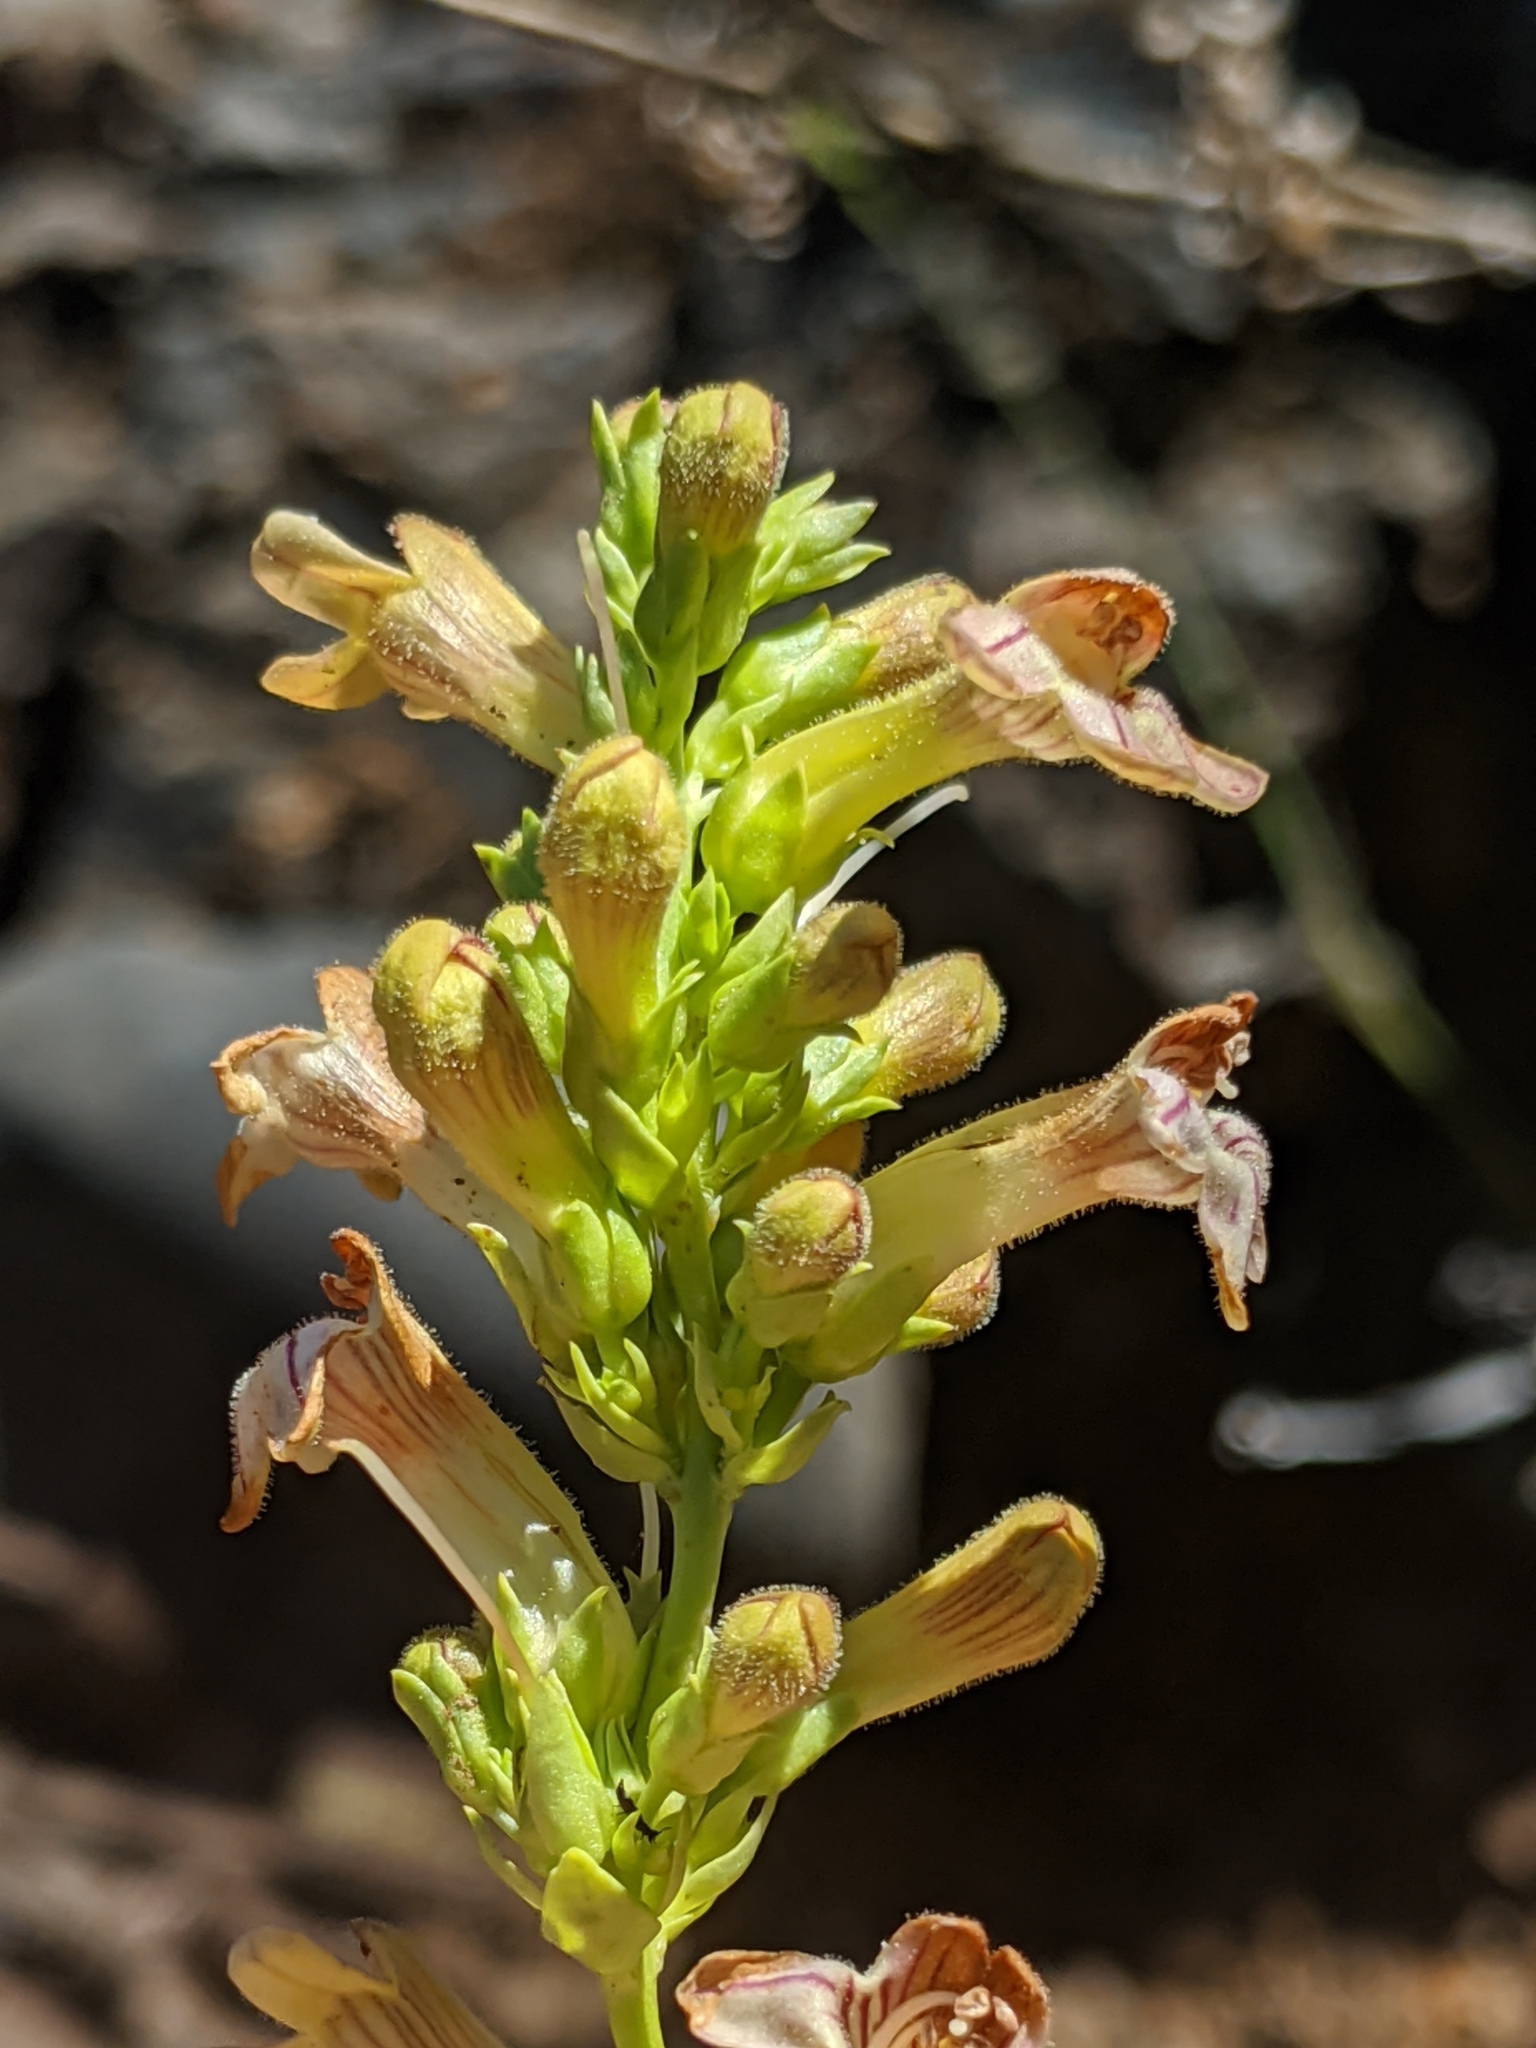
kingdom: Plantae
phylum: Tracheophyta
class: Magnoliopsida
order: Lamiales
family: Plantaginaceae
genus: Penstemon
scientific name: Penstemon deustus
